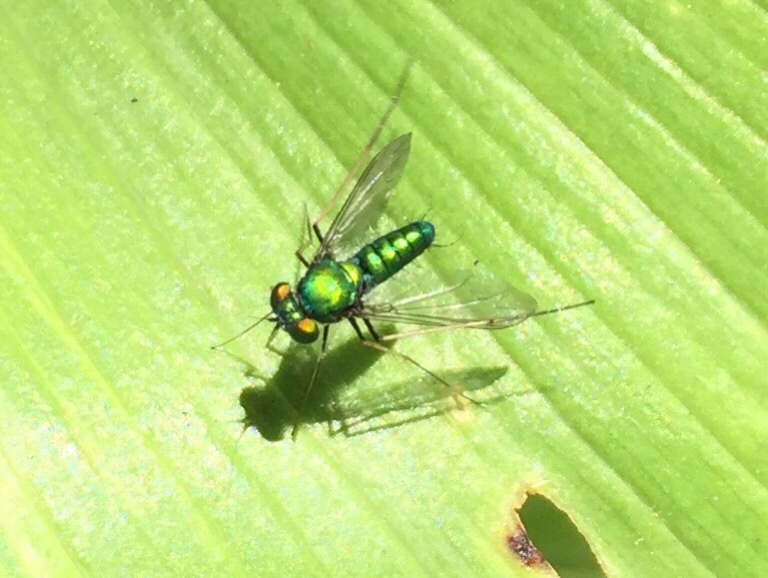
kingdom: Animalia
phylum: Arthropoda
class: Insecta
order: Diptera
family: Dolichopodidae
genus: Condylostylus
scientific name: Condylostylus comatus
